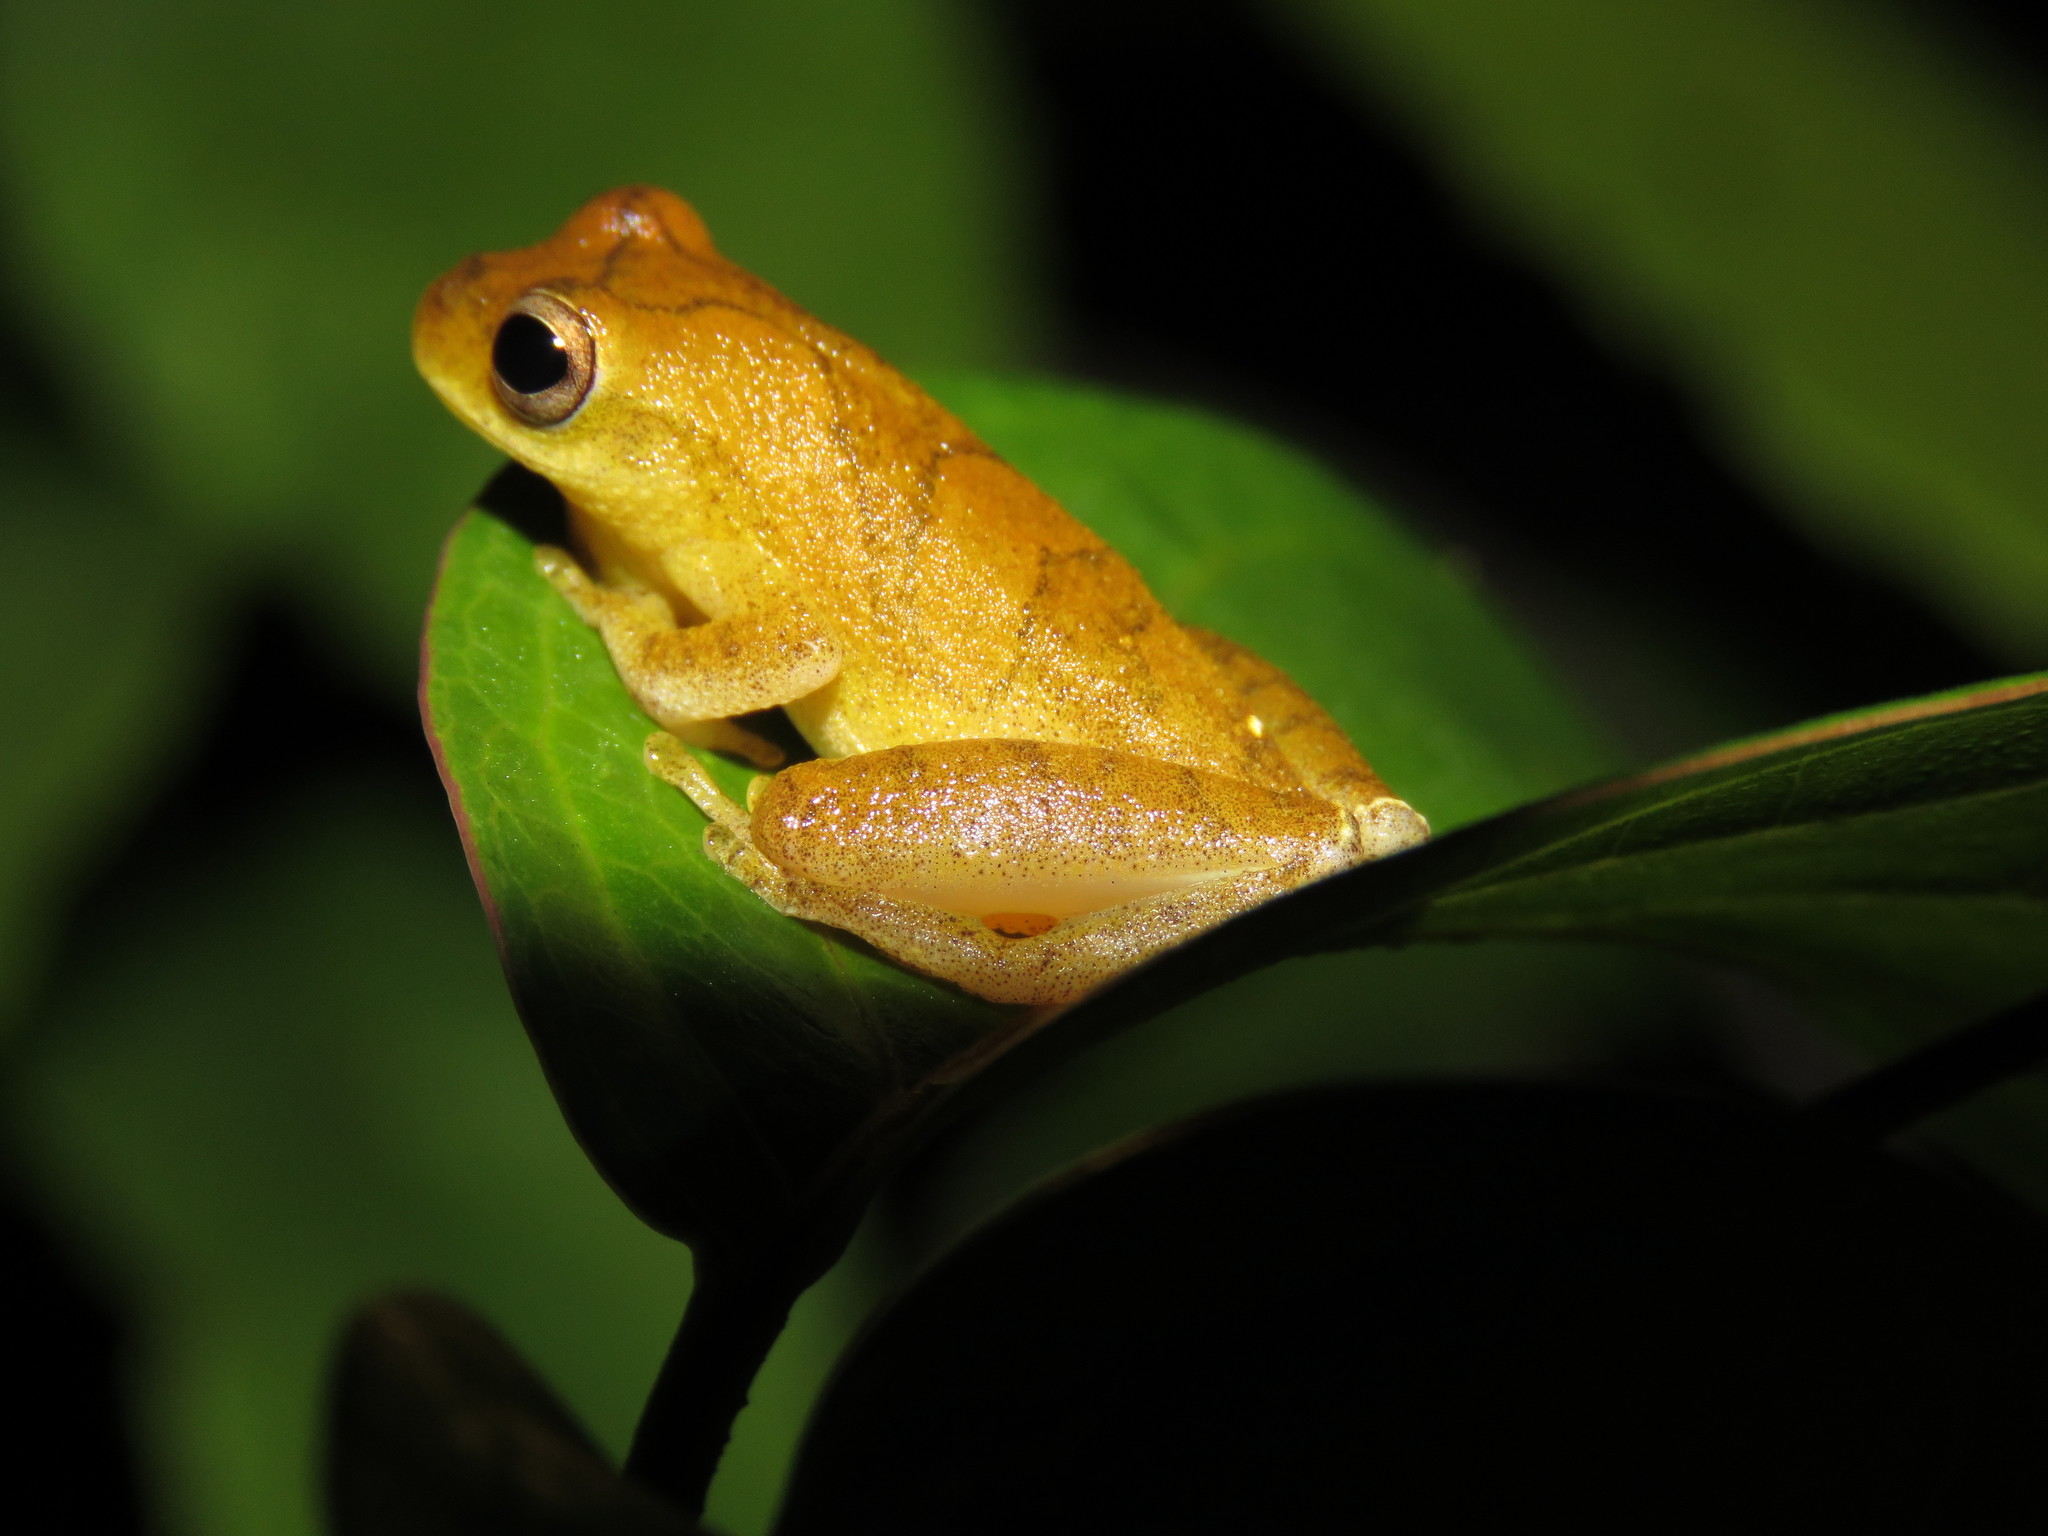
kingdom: Animalia
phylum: Chordata
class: Amphibia
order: Anura
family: Hylidae
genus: Dendropsophus
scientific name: Dendropsophus leali
